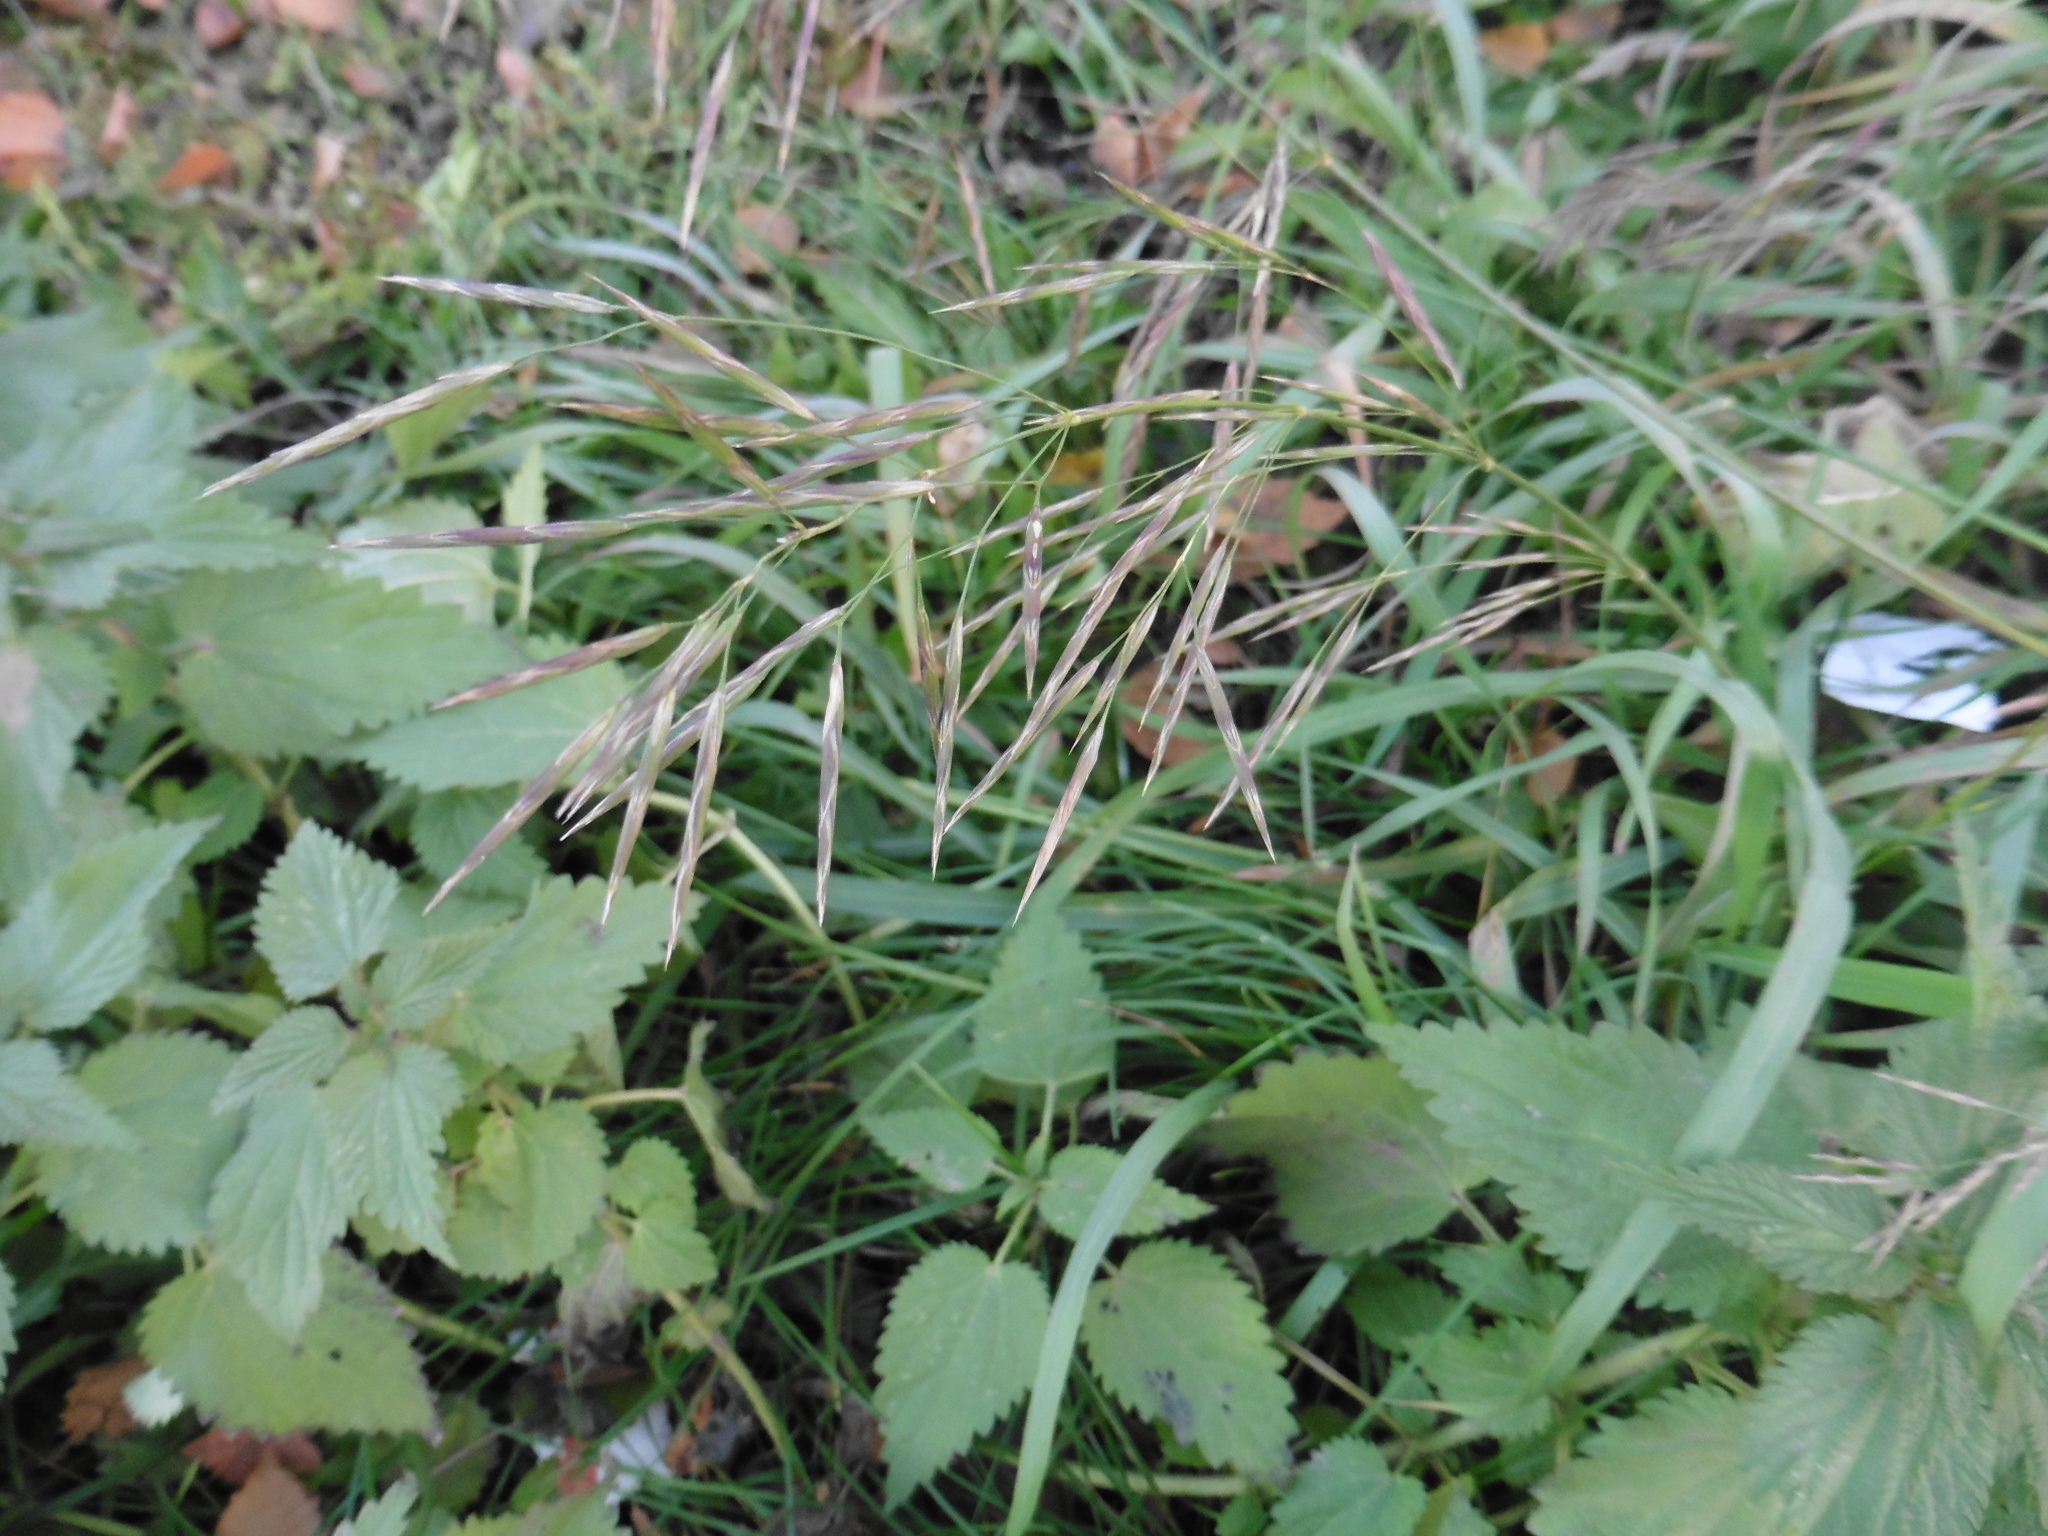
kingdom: Plantae
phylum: Tracheophyta
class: Liliopsida
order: Poales
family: Poaceae
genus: Bromus
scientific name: Bromus inermis
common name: Smooth brome
